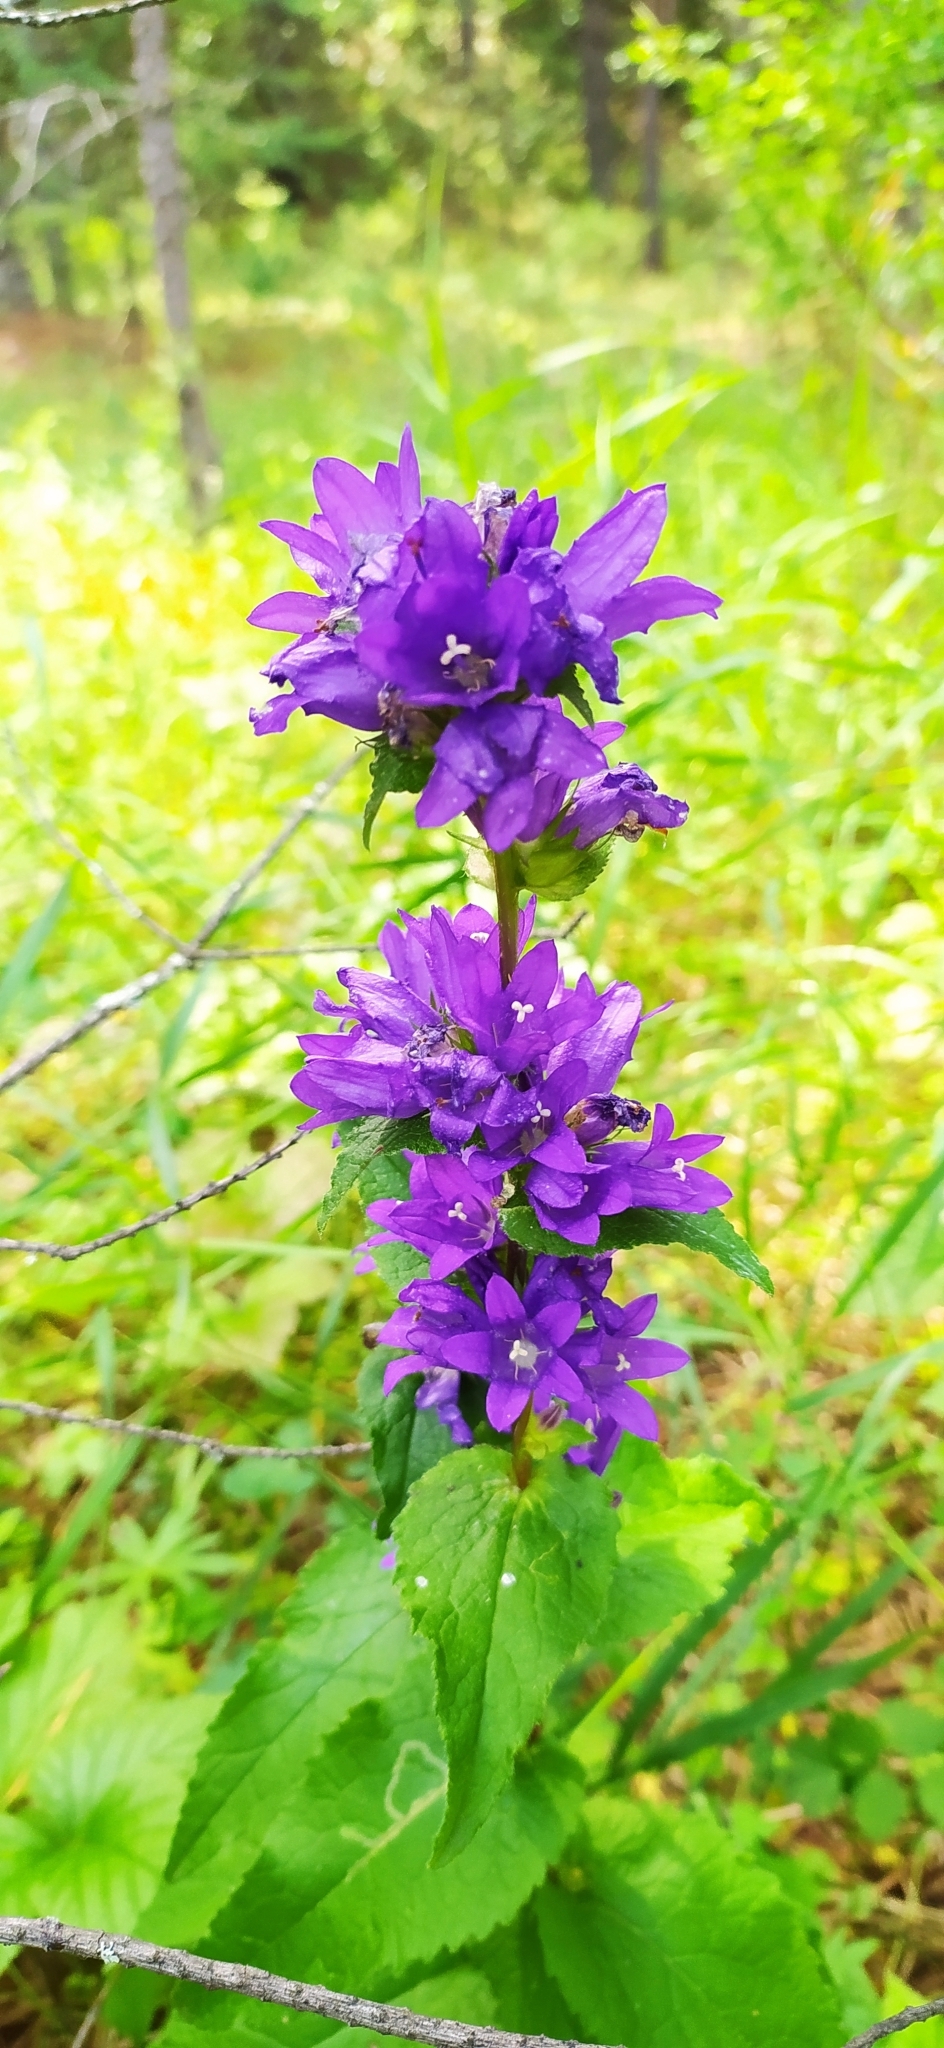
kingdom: Plantae
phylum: Tracheophyta
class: Magnoliopsida
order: Asterales
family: Campanulaceae
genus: Campanula
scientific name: Campanula glomerata
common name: Clustered bellflower
